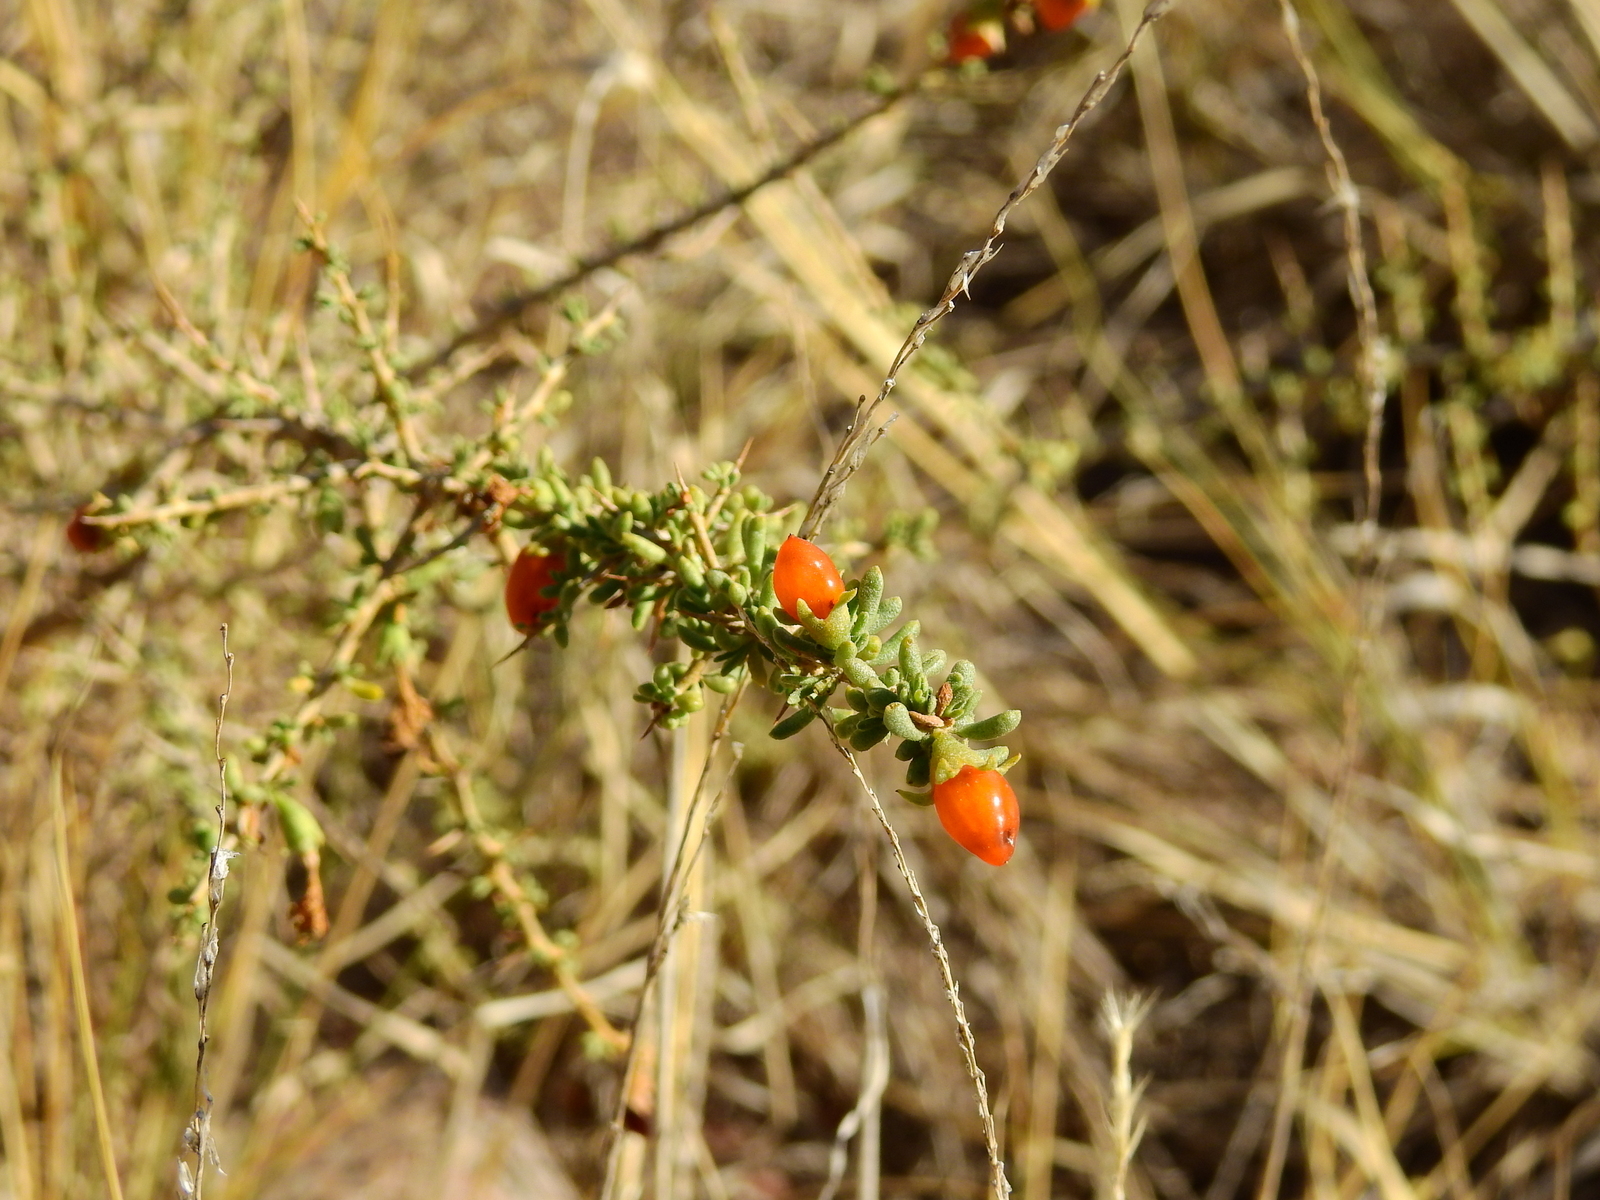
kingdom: Plantae
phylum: Tracheophyta
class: Magnoliopsida
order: Solanales
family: Solanaceae
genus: Lycium
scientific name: Lycium tenuispinosum
